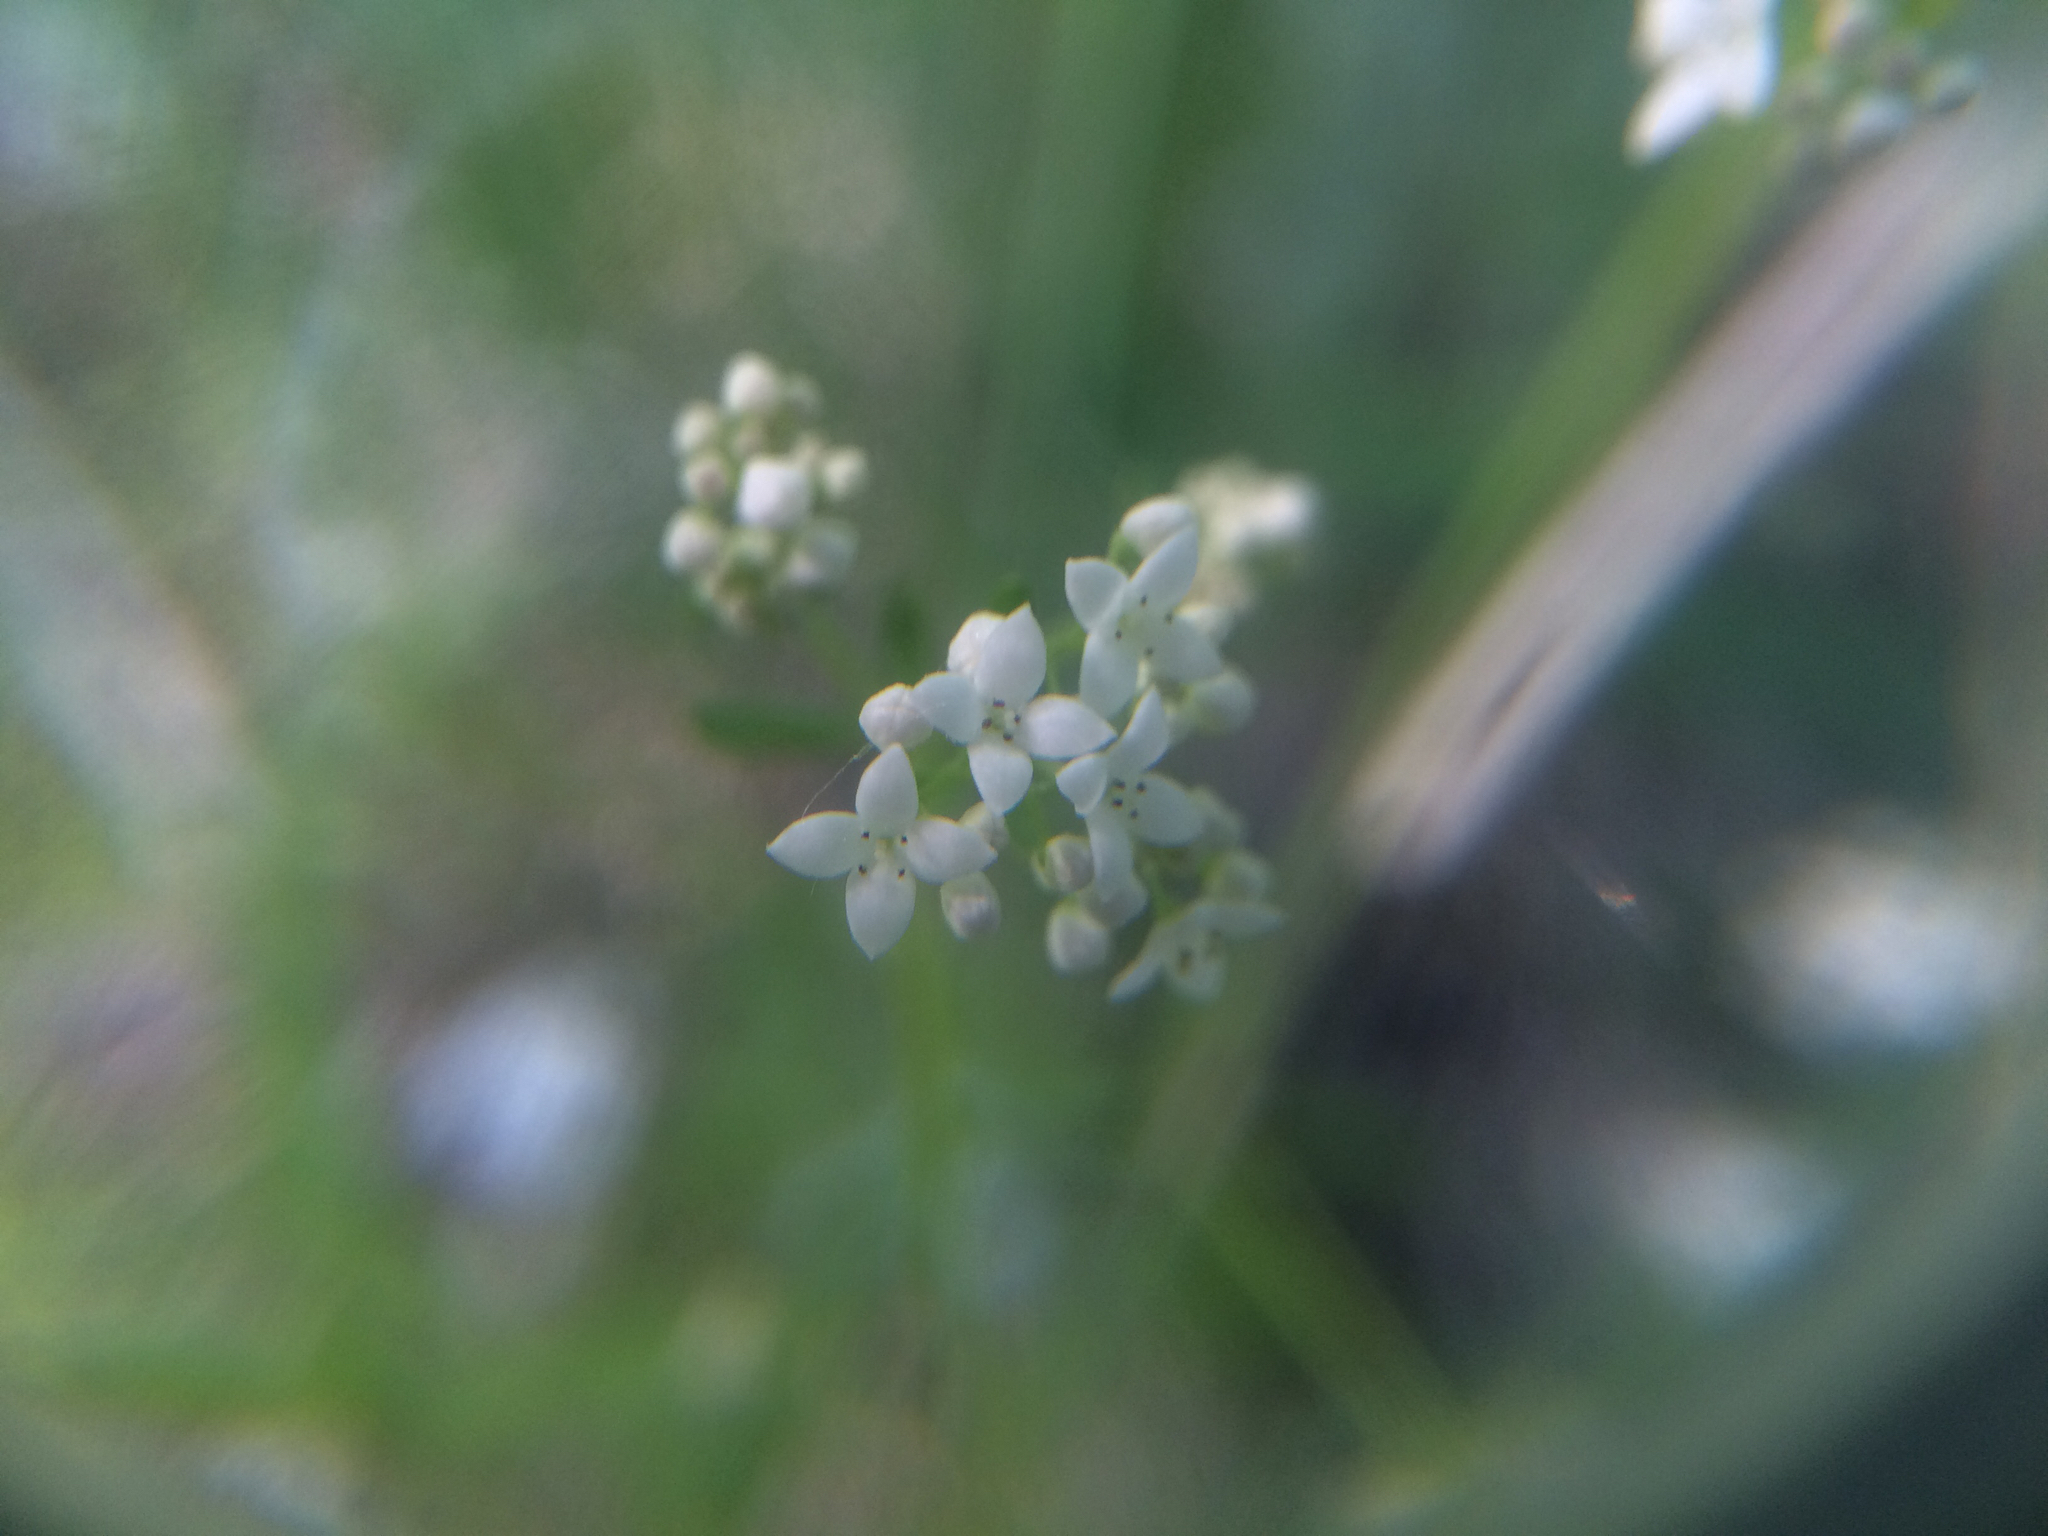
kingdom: Plantae
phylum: Tracheophyta
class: Magnoliopsida
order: Gentianales
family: Rubiaceae
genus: Galium
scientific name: Galium palustre
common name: Common marsh-bedstraw
